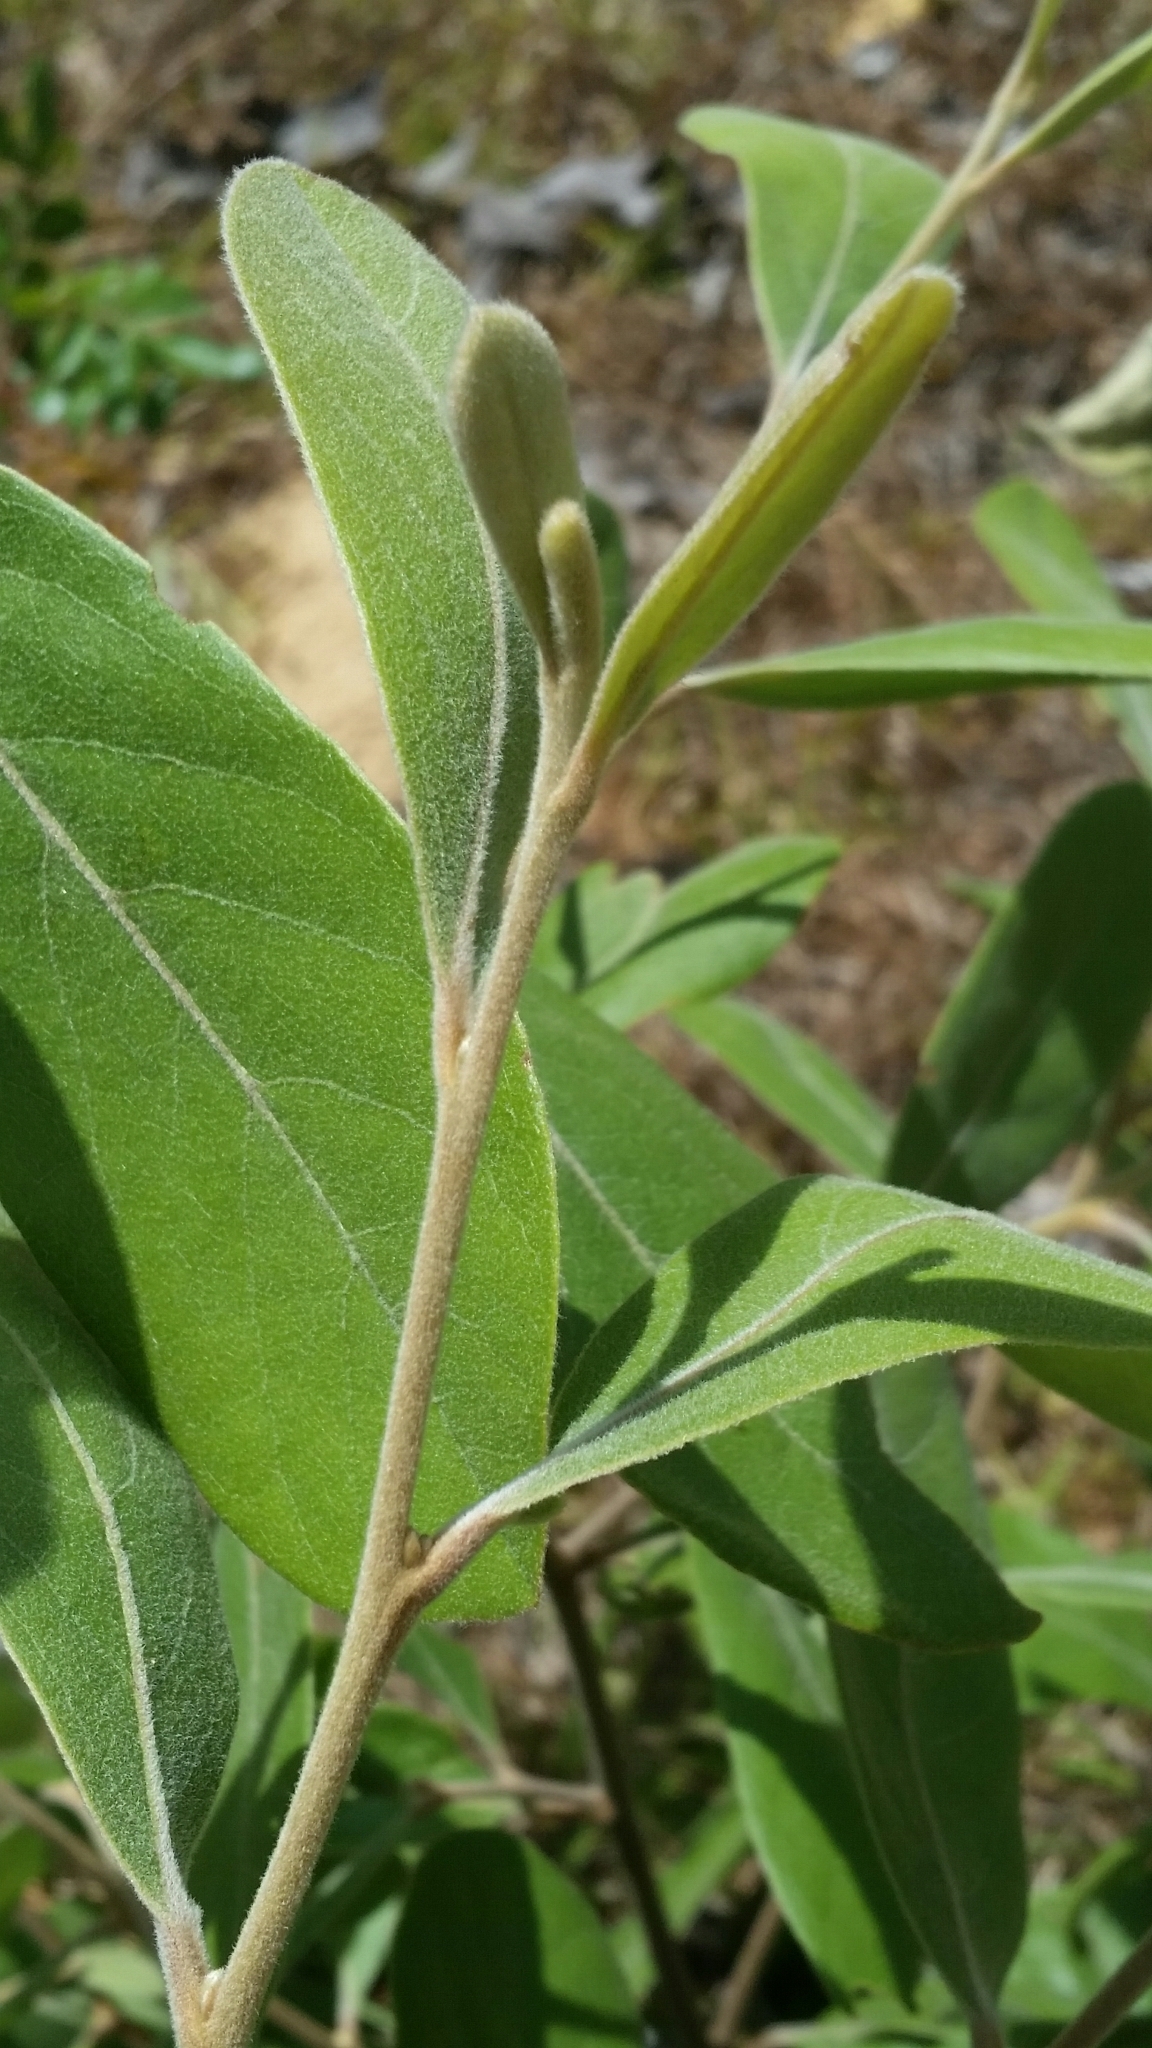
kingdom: Plantae
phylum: Tracheophyta
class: Magnoliopsida
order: Magnoliales
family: Annonaceae
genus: Asimina
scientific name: Asimina speciosa
